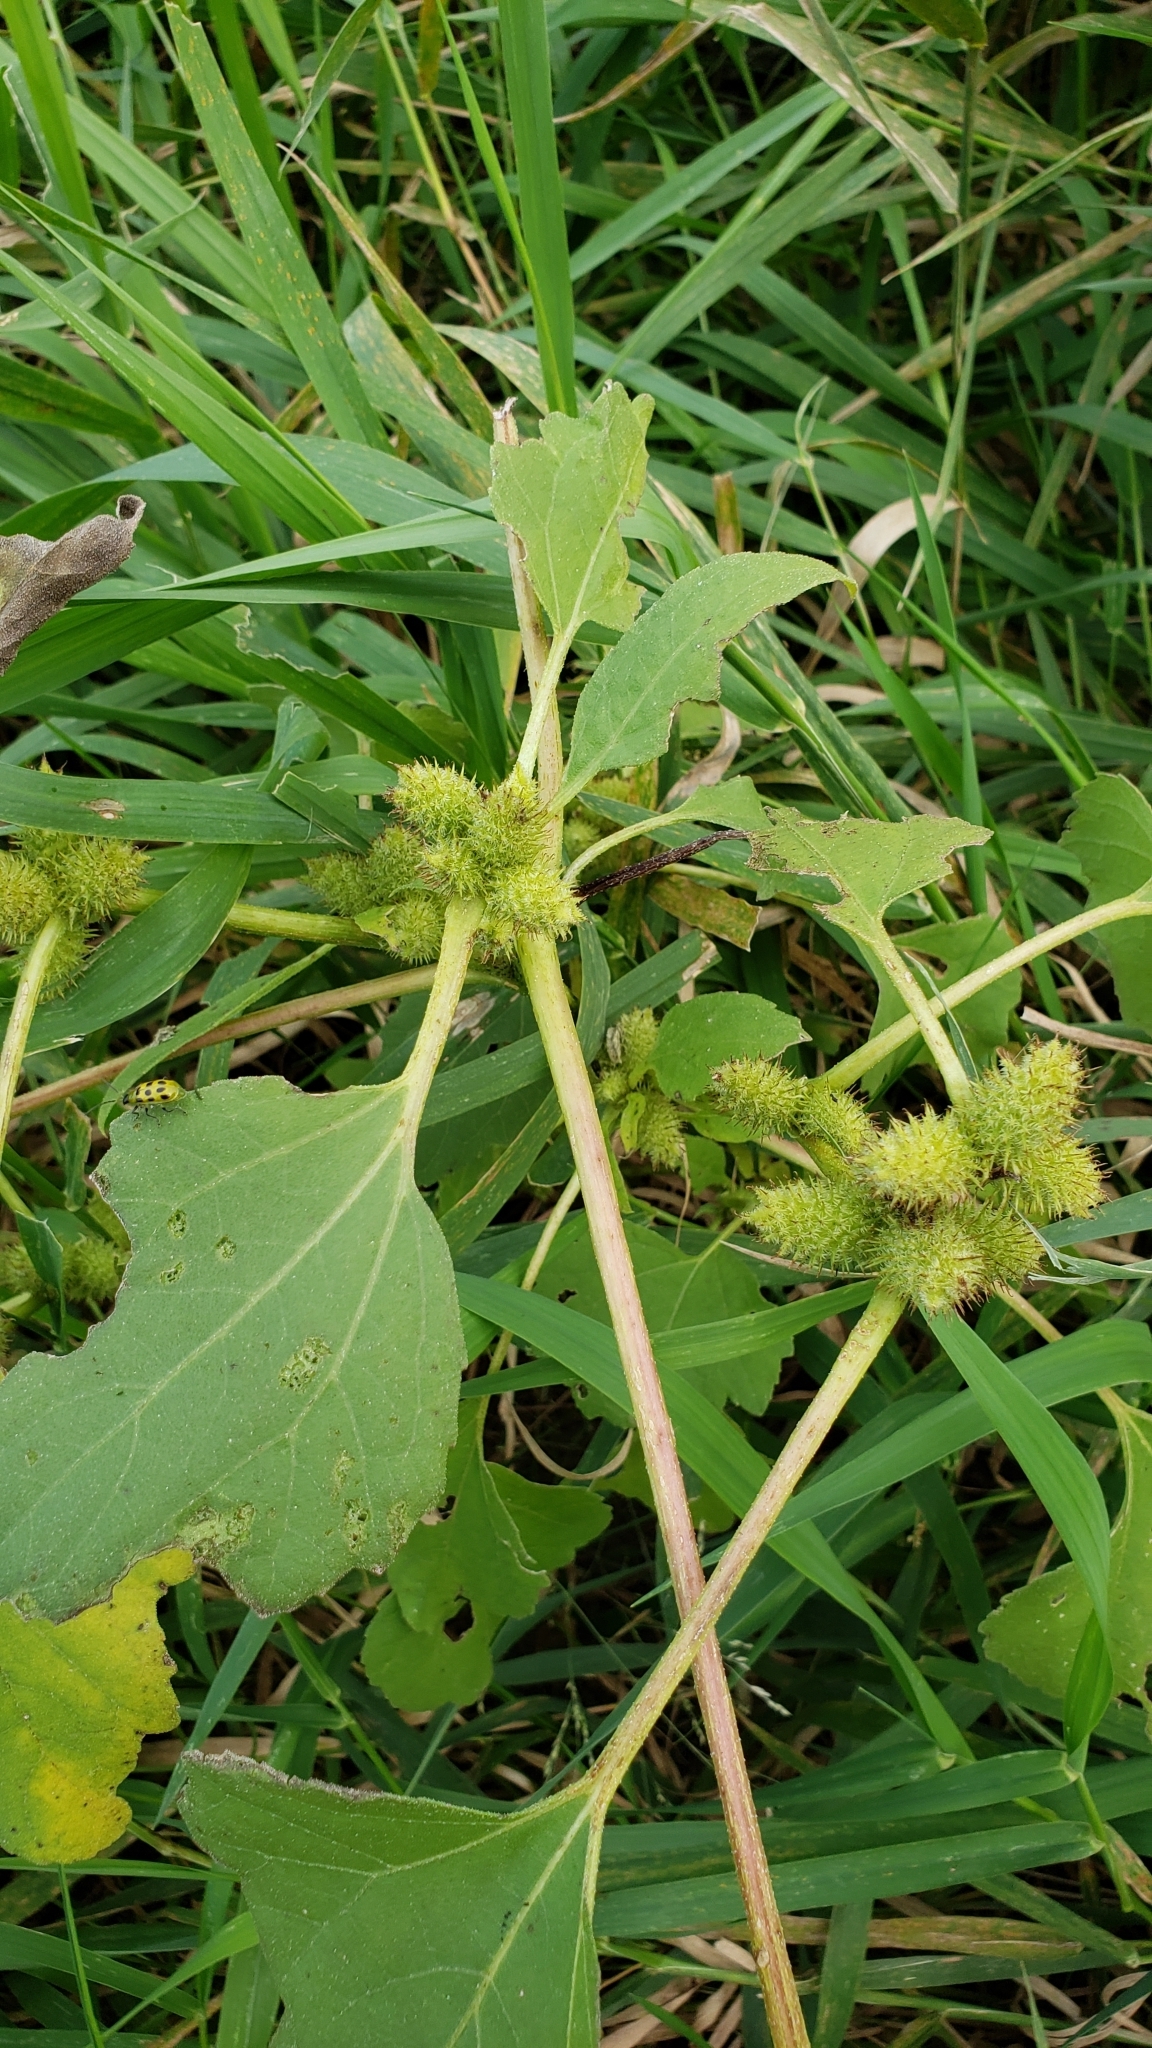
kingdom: Plantae
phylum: Tracheophyta
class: Magnoliopsida
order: Asterales
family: Asteraceae
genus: Xanthium
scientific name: Xanthium strumarium
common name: Rough cocklebur
